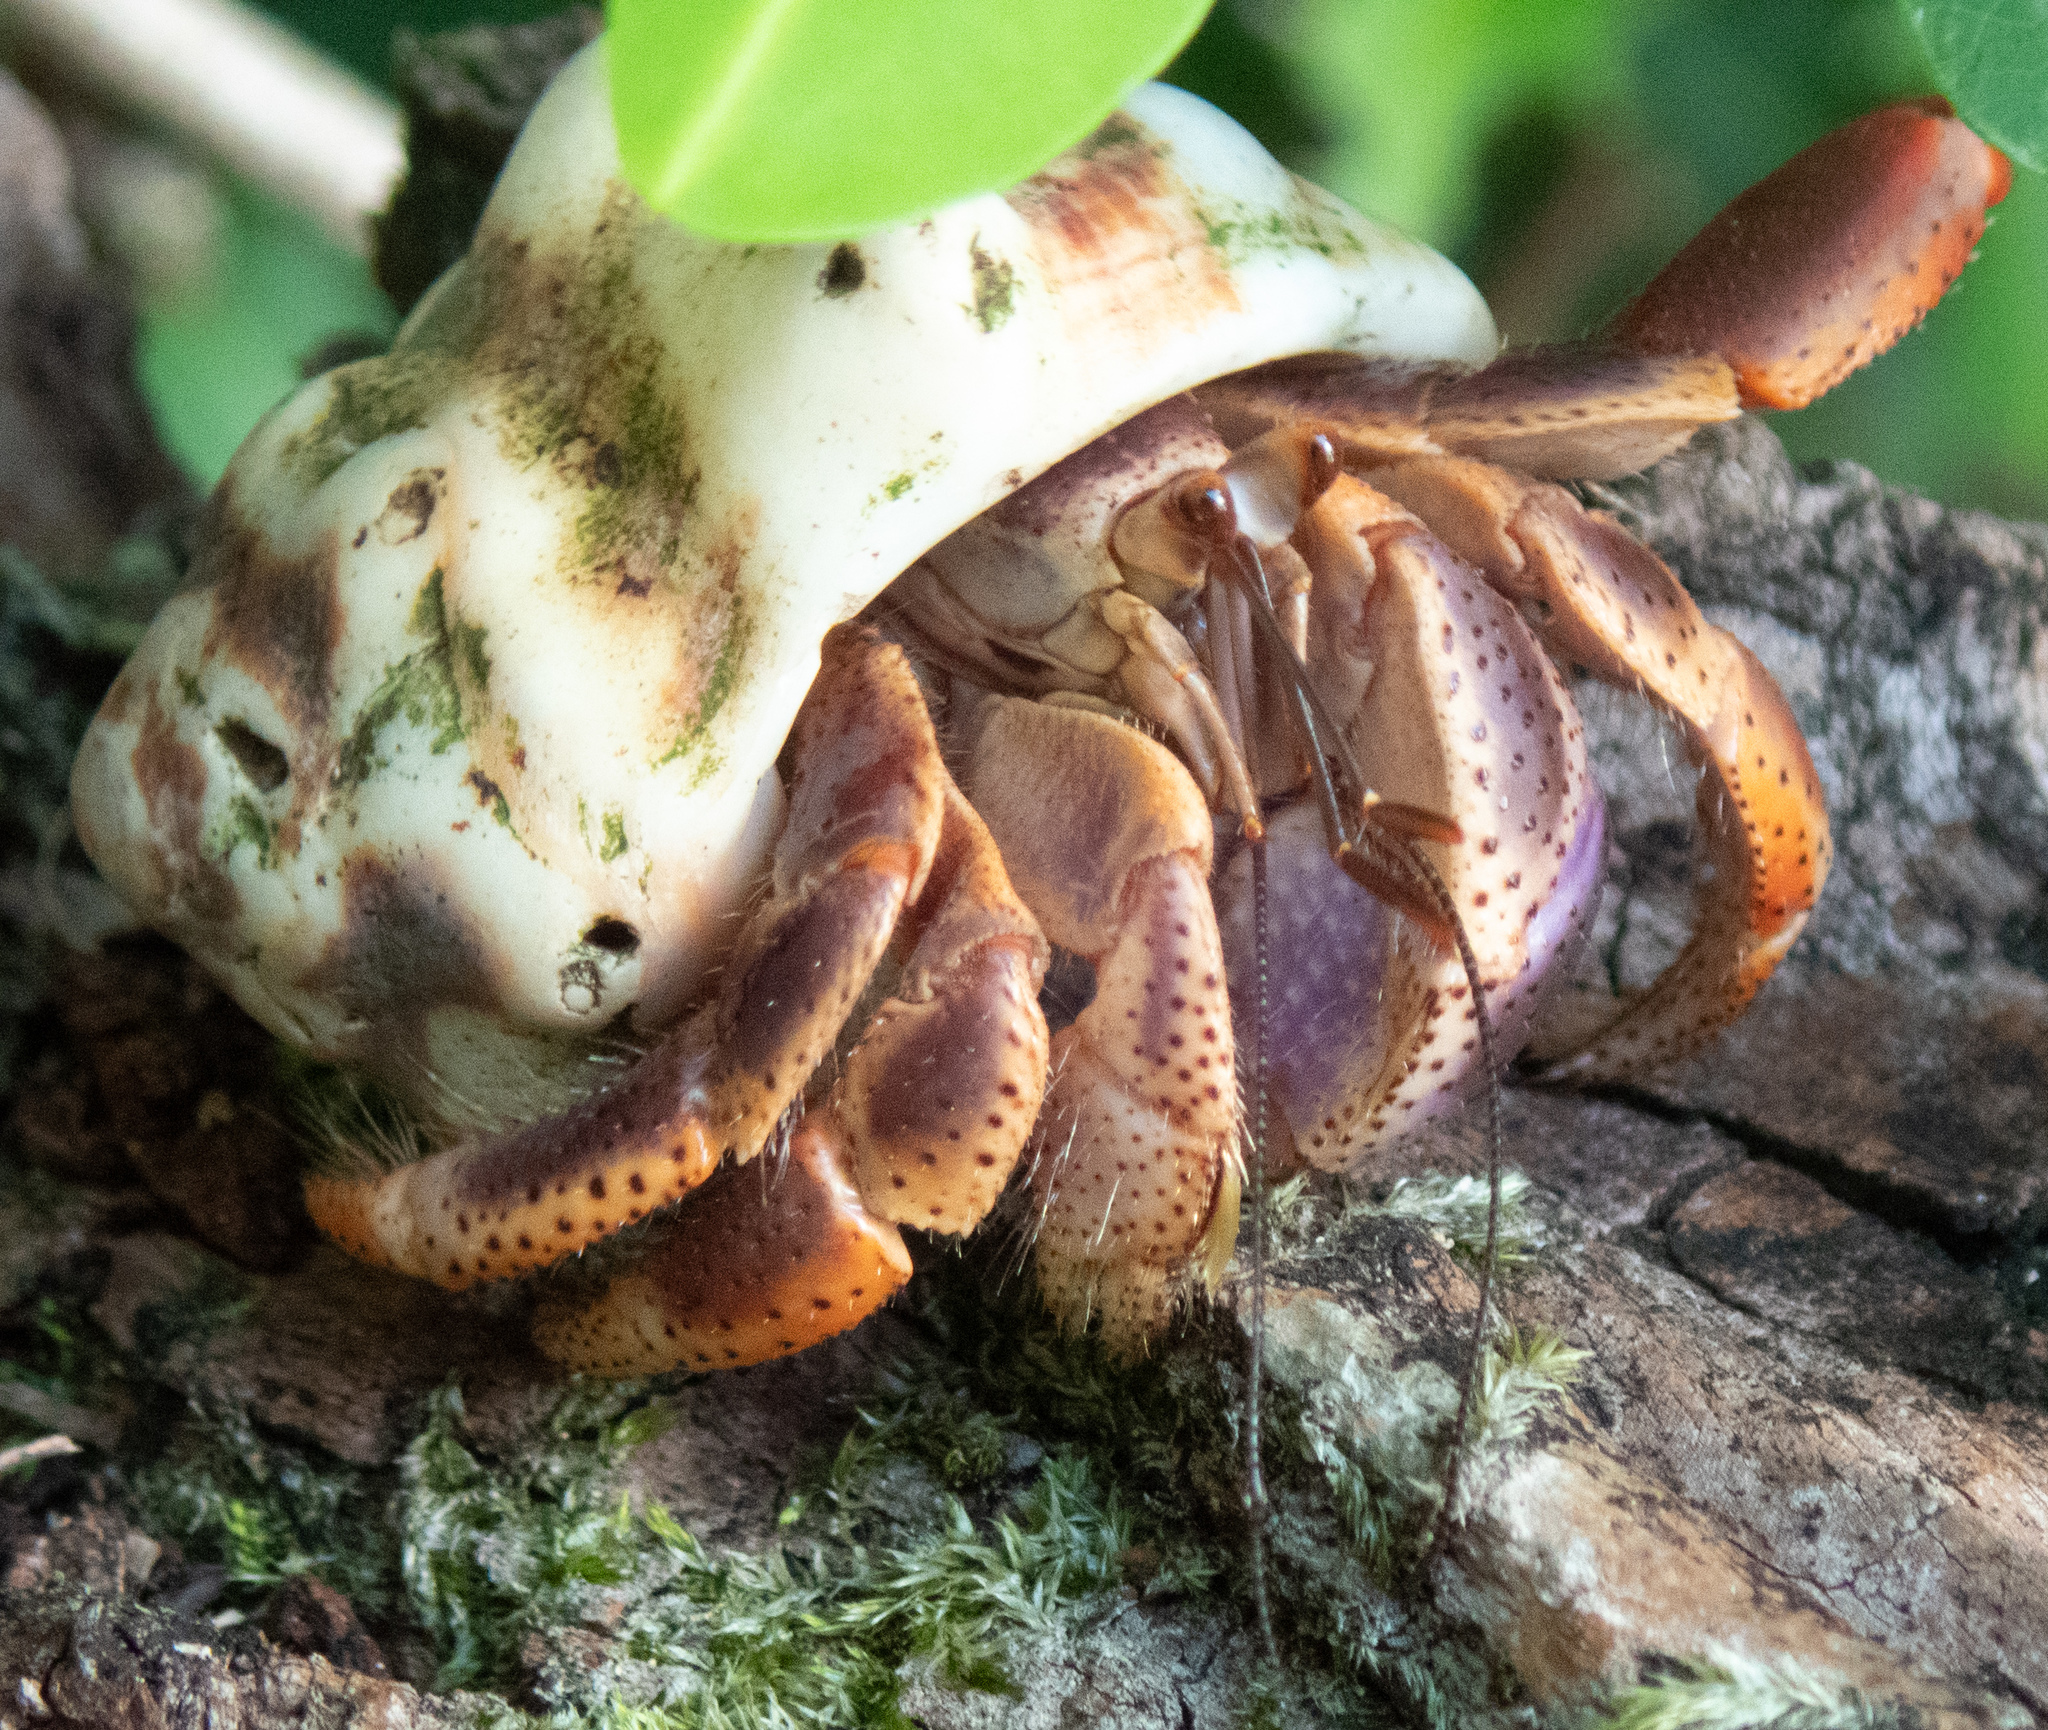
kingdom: Animalia
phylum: Arthropoda
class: Malacostraca
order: Decapoda
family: Coenobitidae
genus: Coenobita
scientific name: Coenobita clypeatus
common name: Caribbean hermit crab
